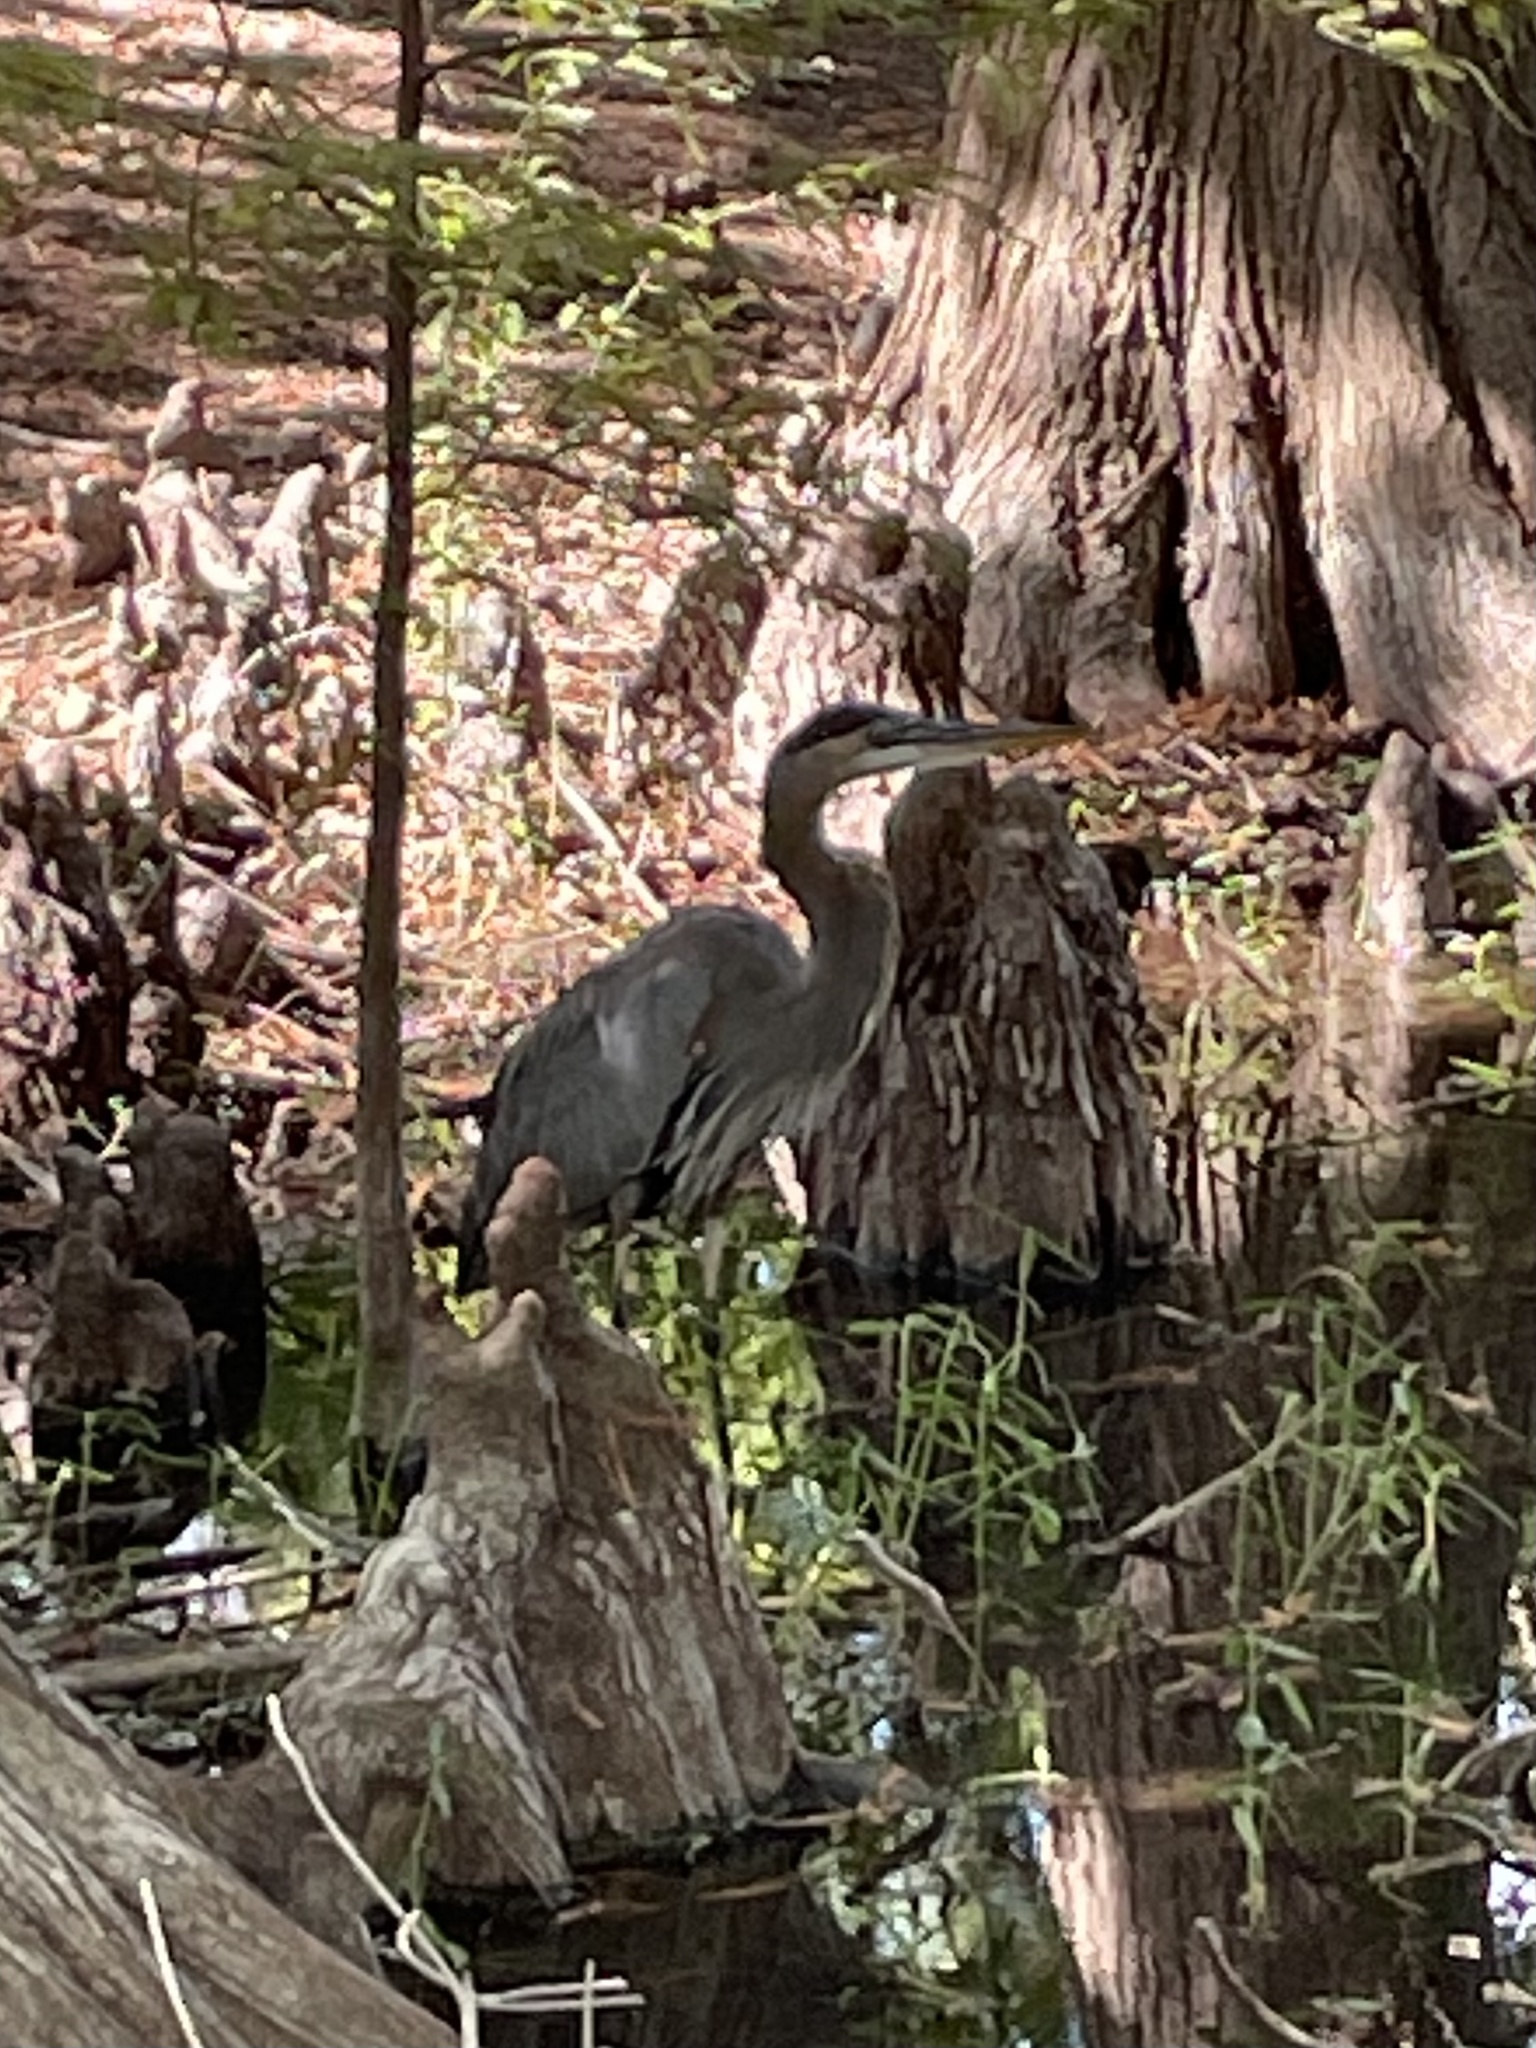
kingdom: Animalia
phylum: Chordata
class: Aves
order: Pelecaniformes
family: Ardeidae
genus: Ardea
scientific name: Ardea herodias
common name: Great blue heron
